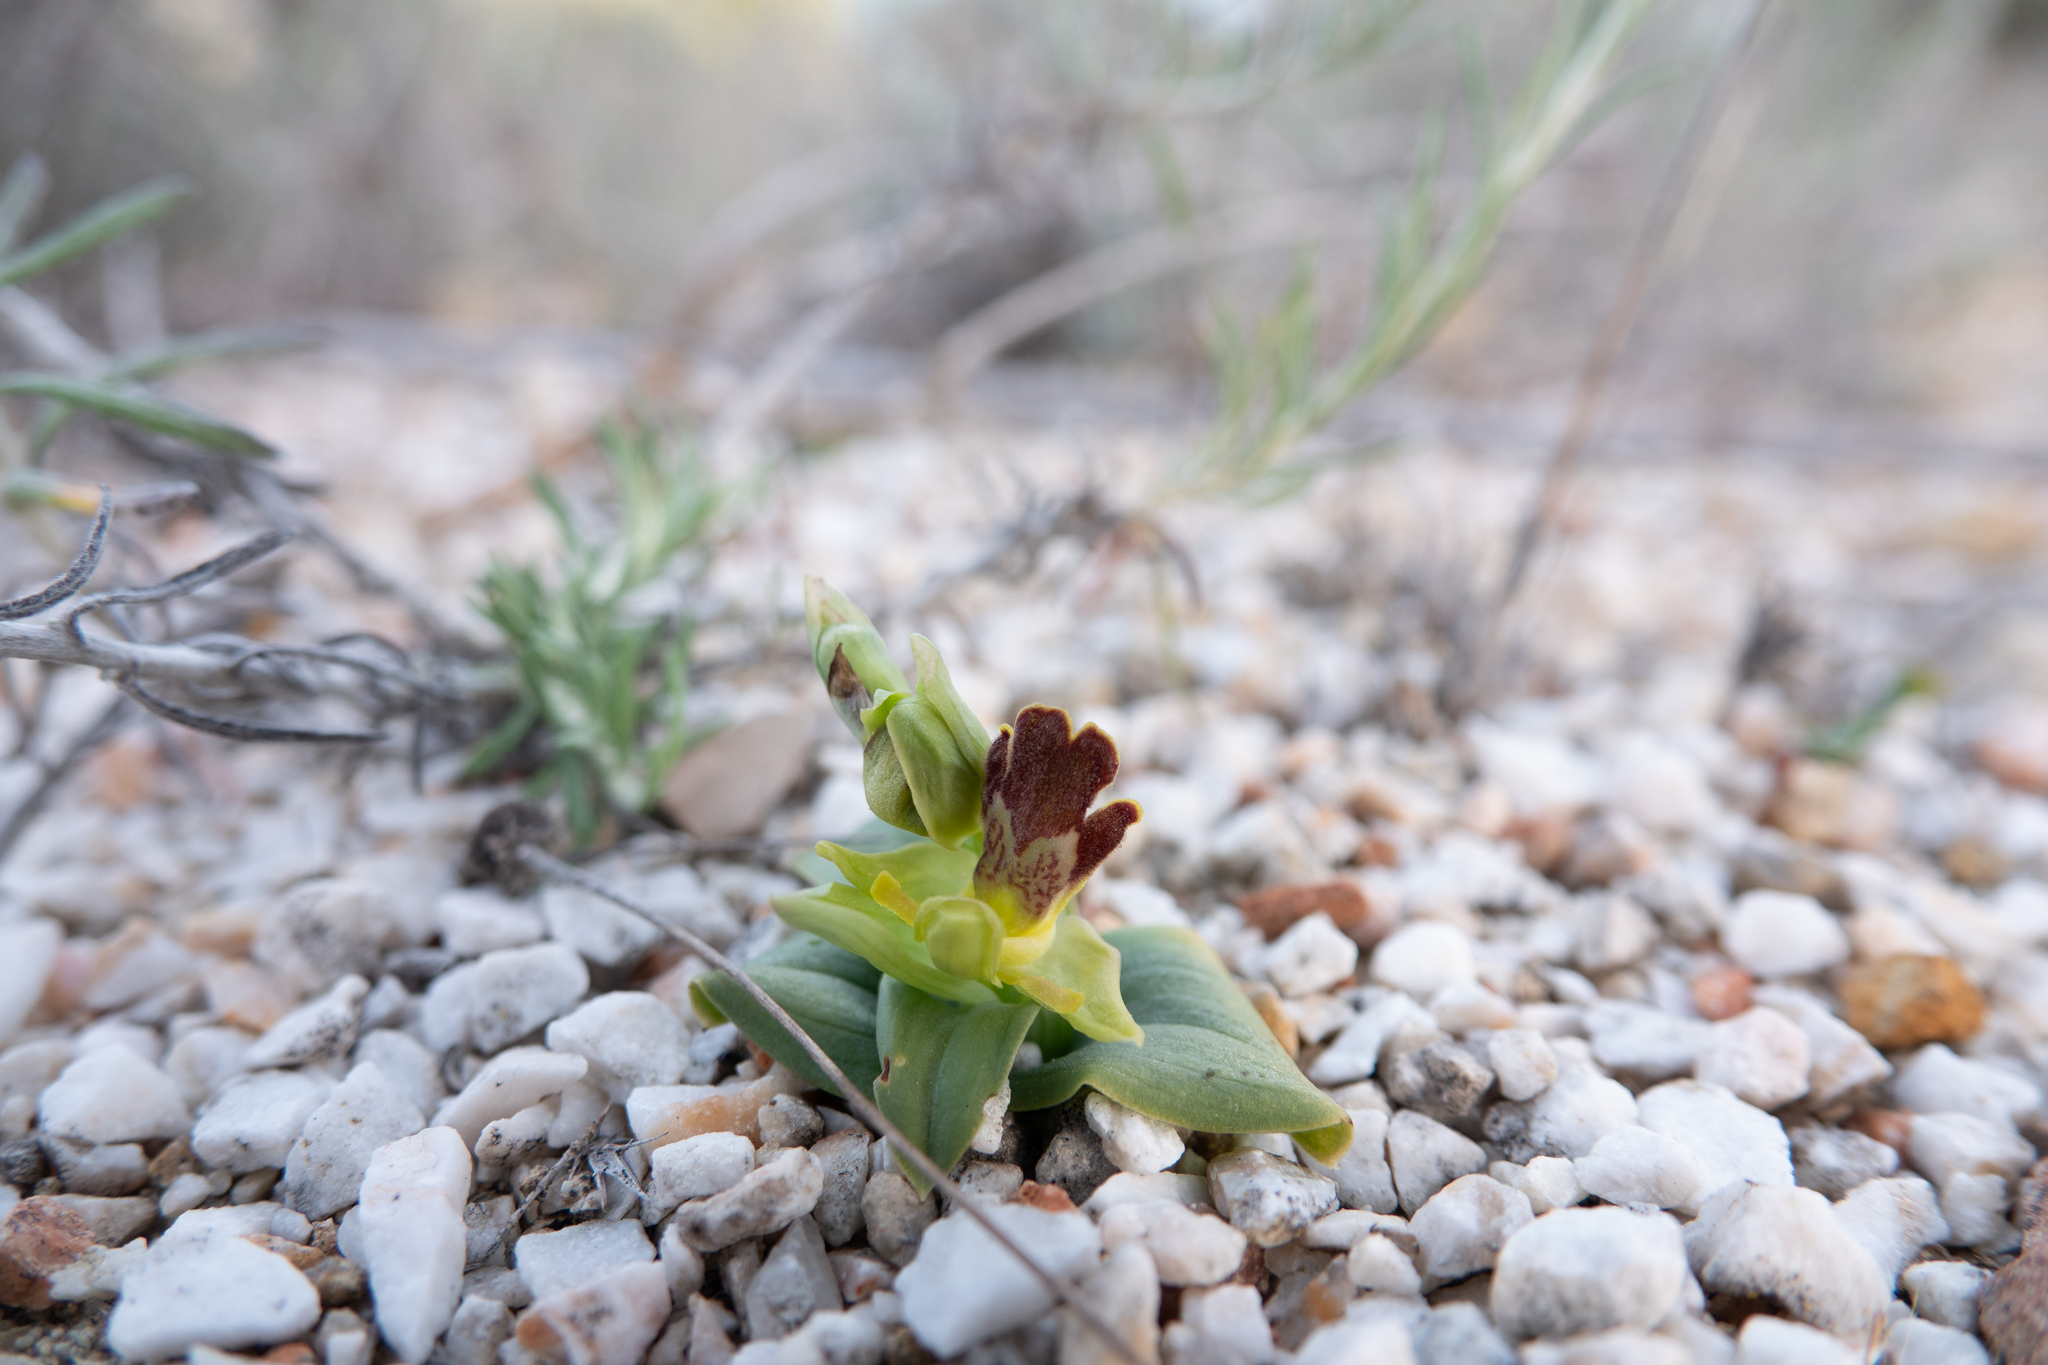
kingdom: Plantae
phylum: Tracheophyta
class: Liliopsida
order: Asparagales
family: Orchidaceae
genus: Ophrys
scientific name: Ophrys fusca
